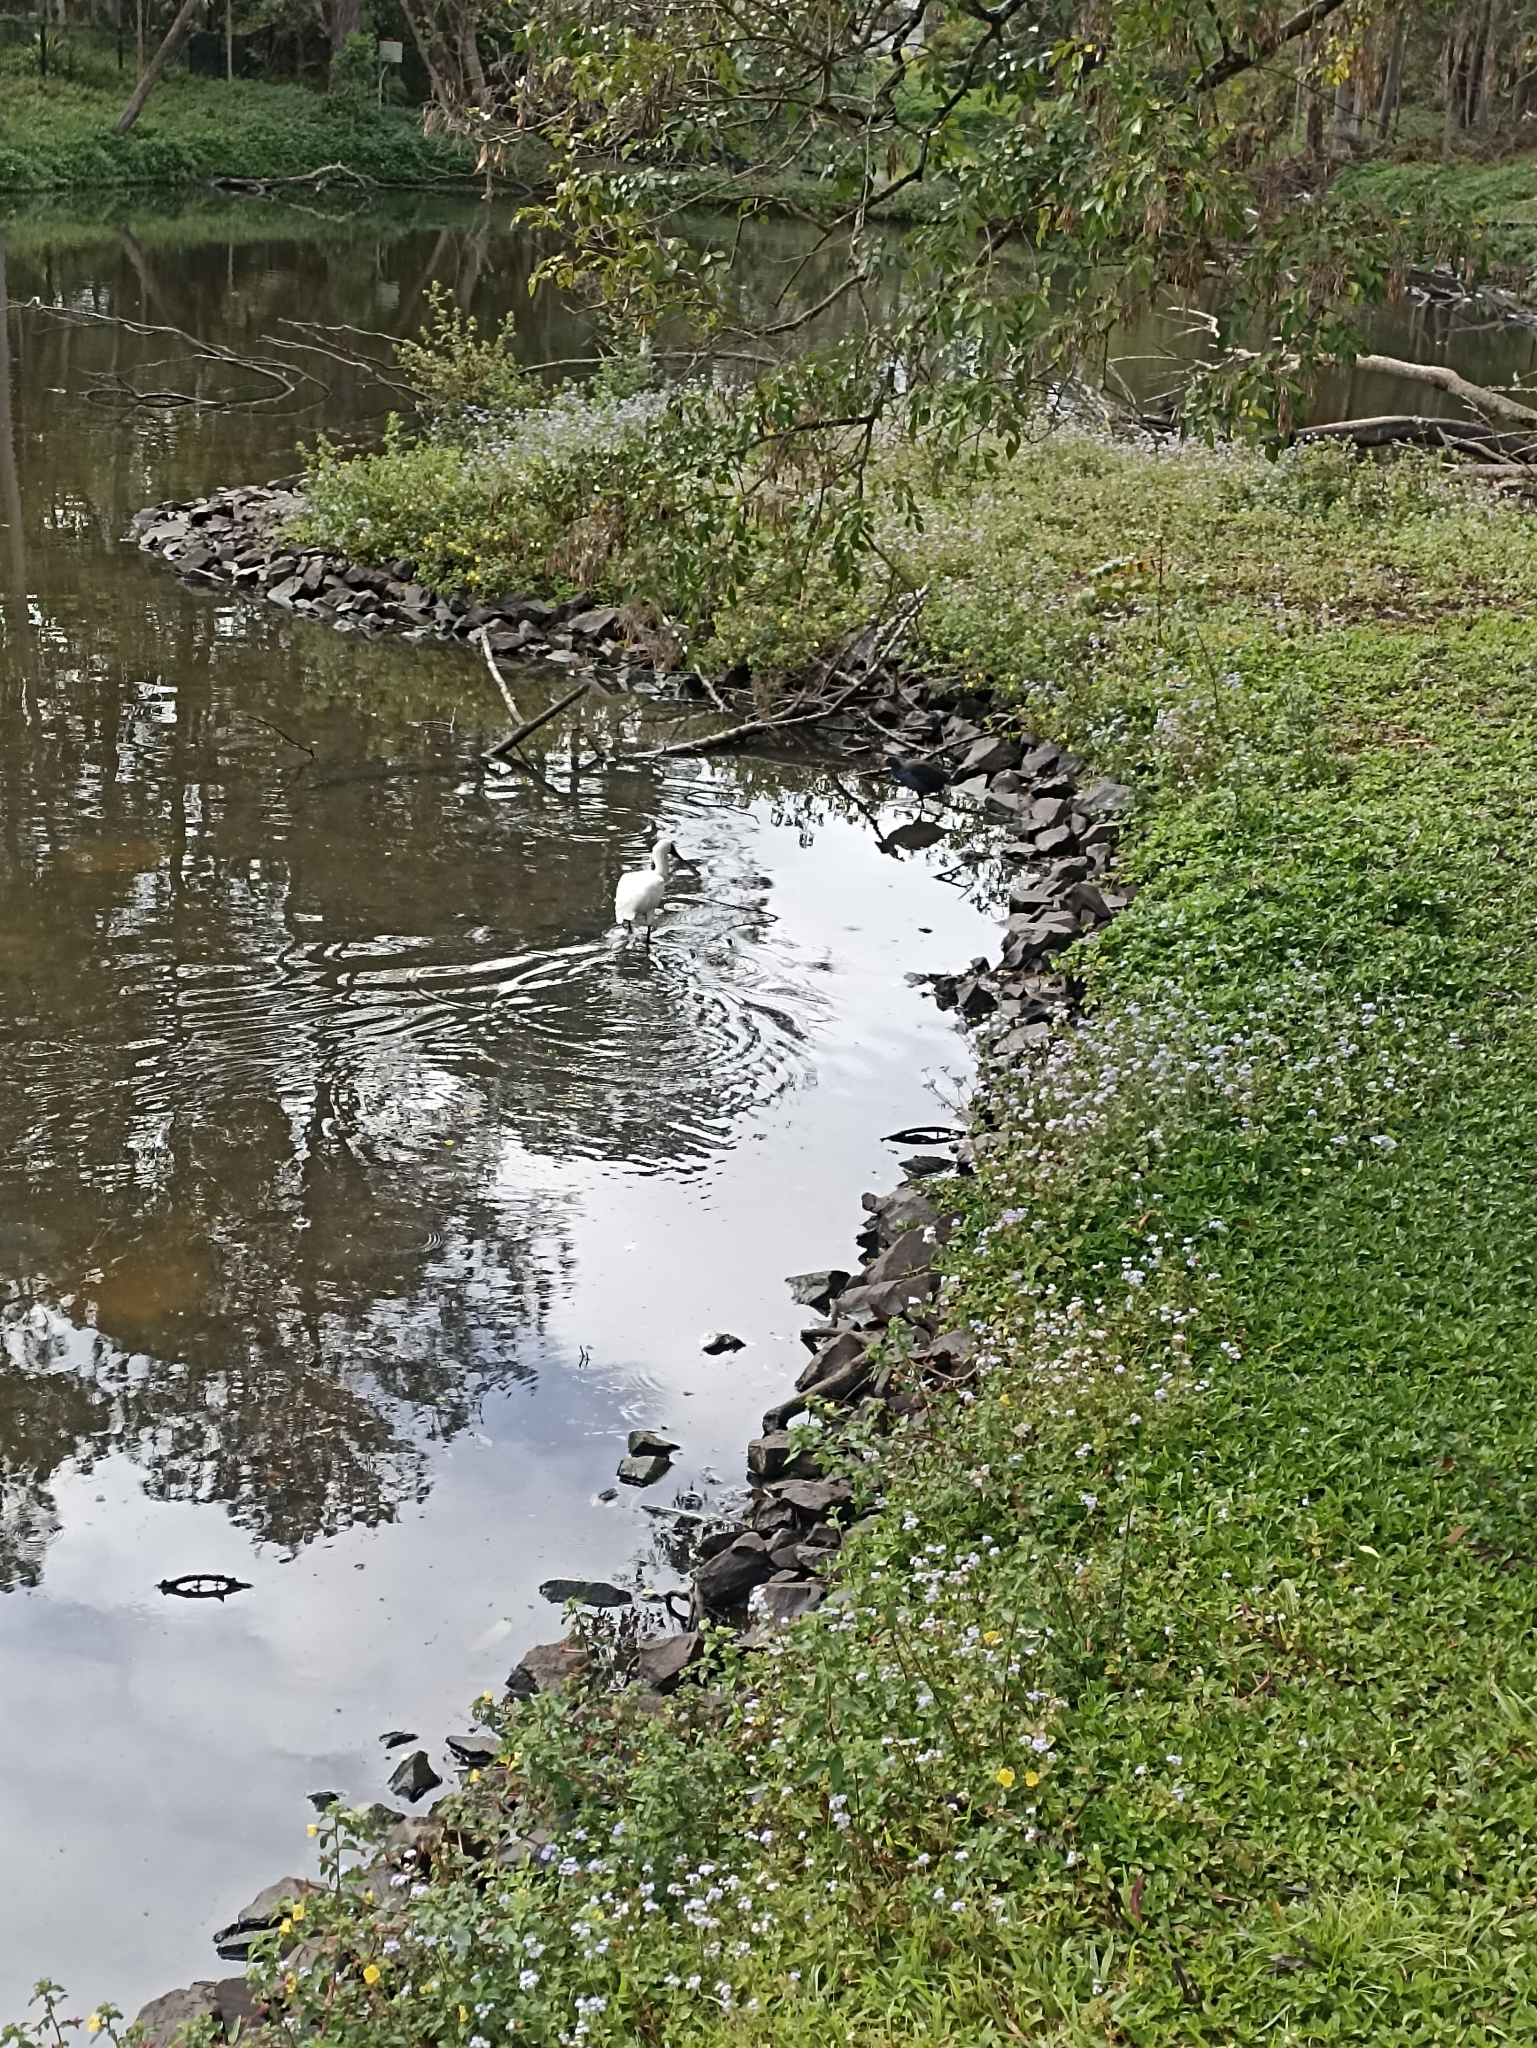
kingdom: Animalia
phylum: Chordata
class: Aves
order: Pelecaniformes
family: Threskiornithidae
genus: Platalea
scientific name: Platalea regia
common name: Royal spoonbill
